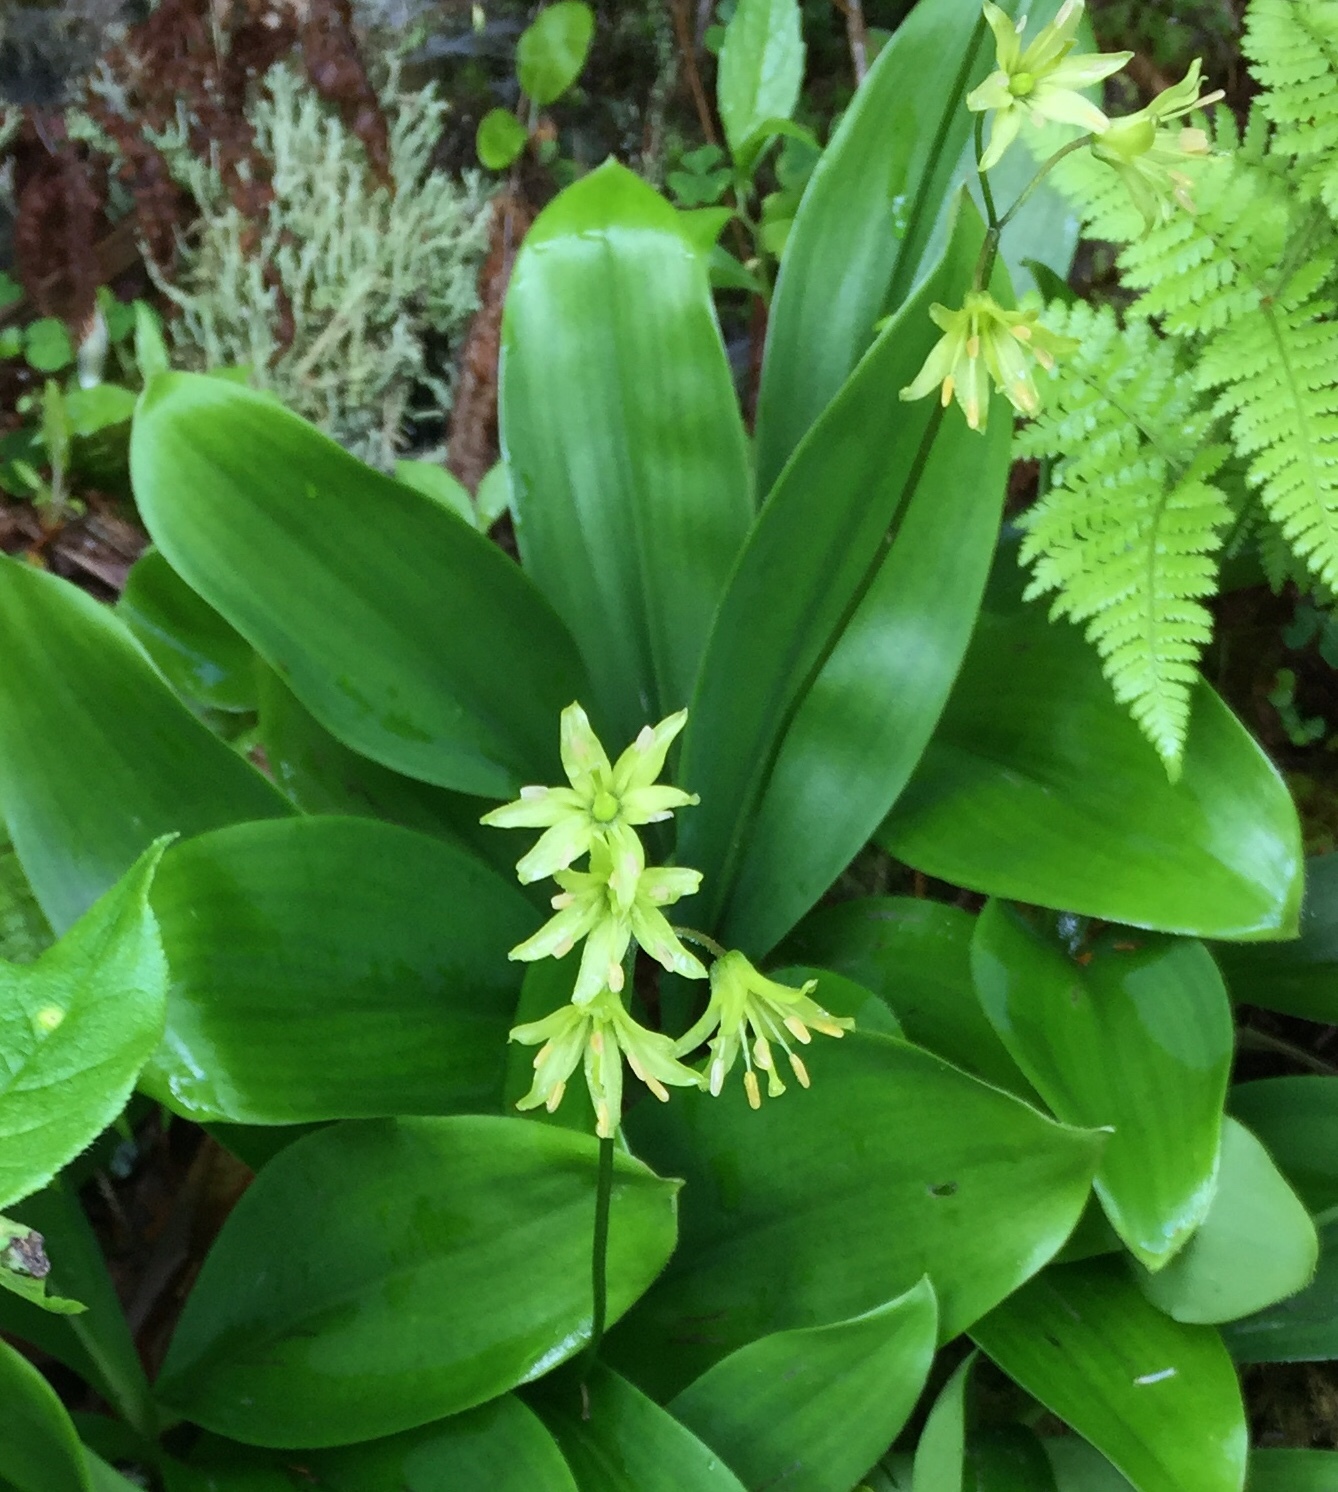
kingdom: Plantae
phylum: Tracheophyta
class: Liliopsida
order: Liliales
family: Liliaceae
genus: Clintonia
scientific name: Clintonia borealis
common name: Yellow clintonia
